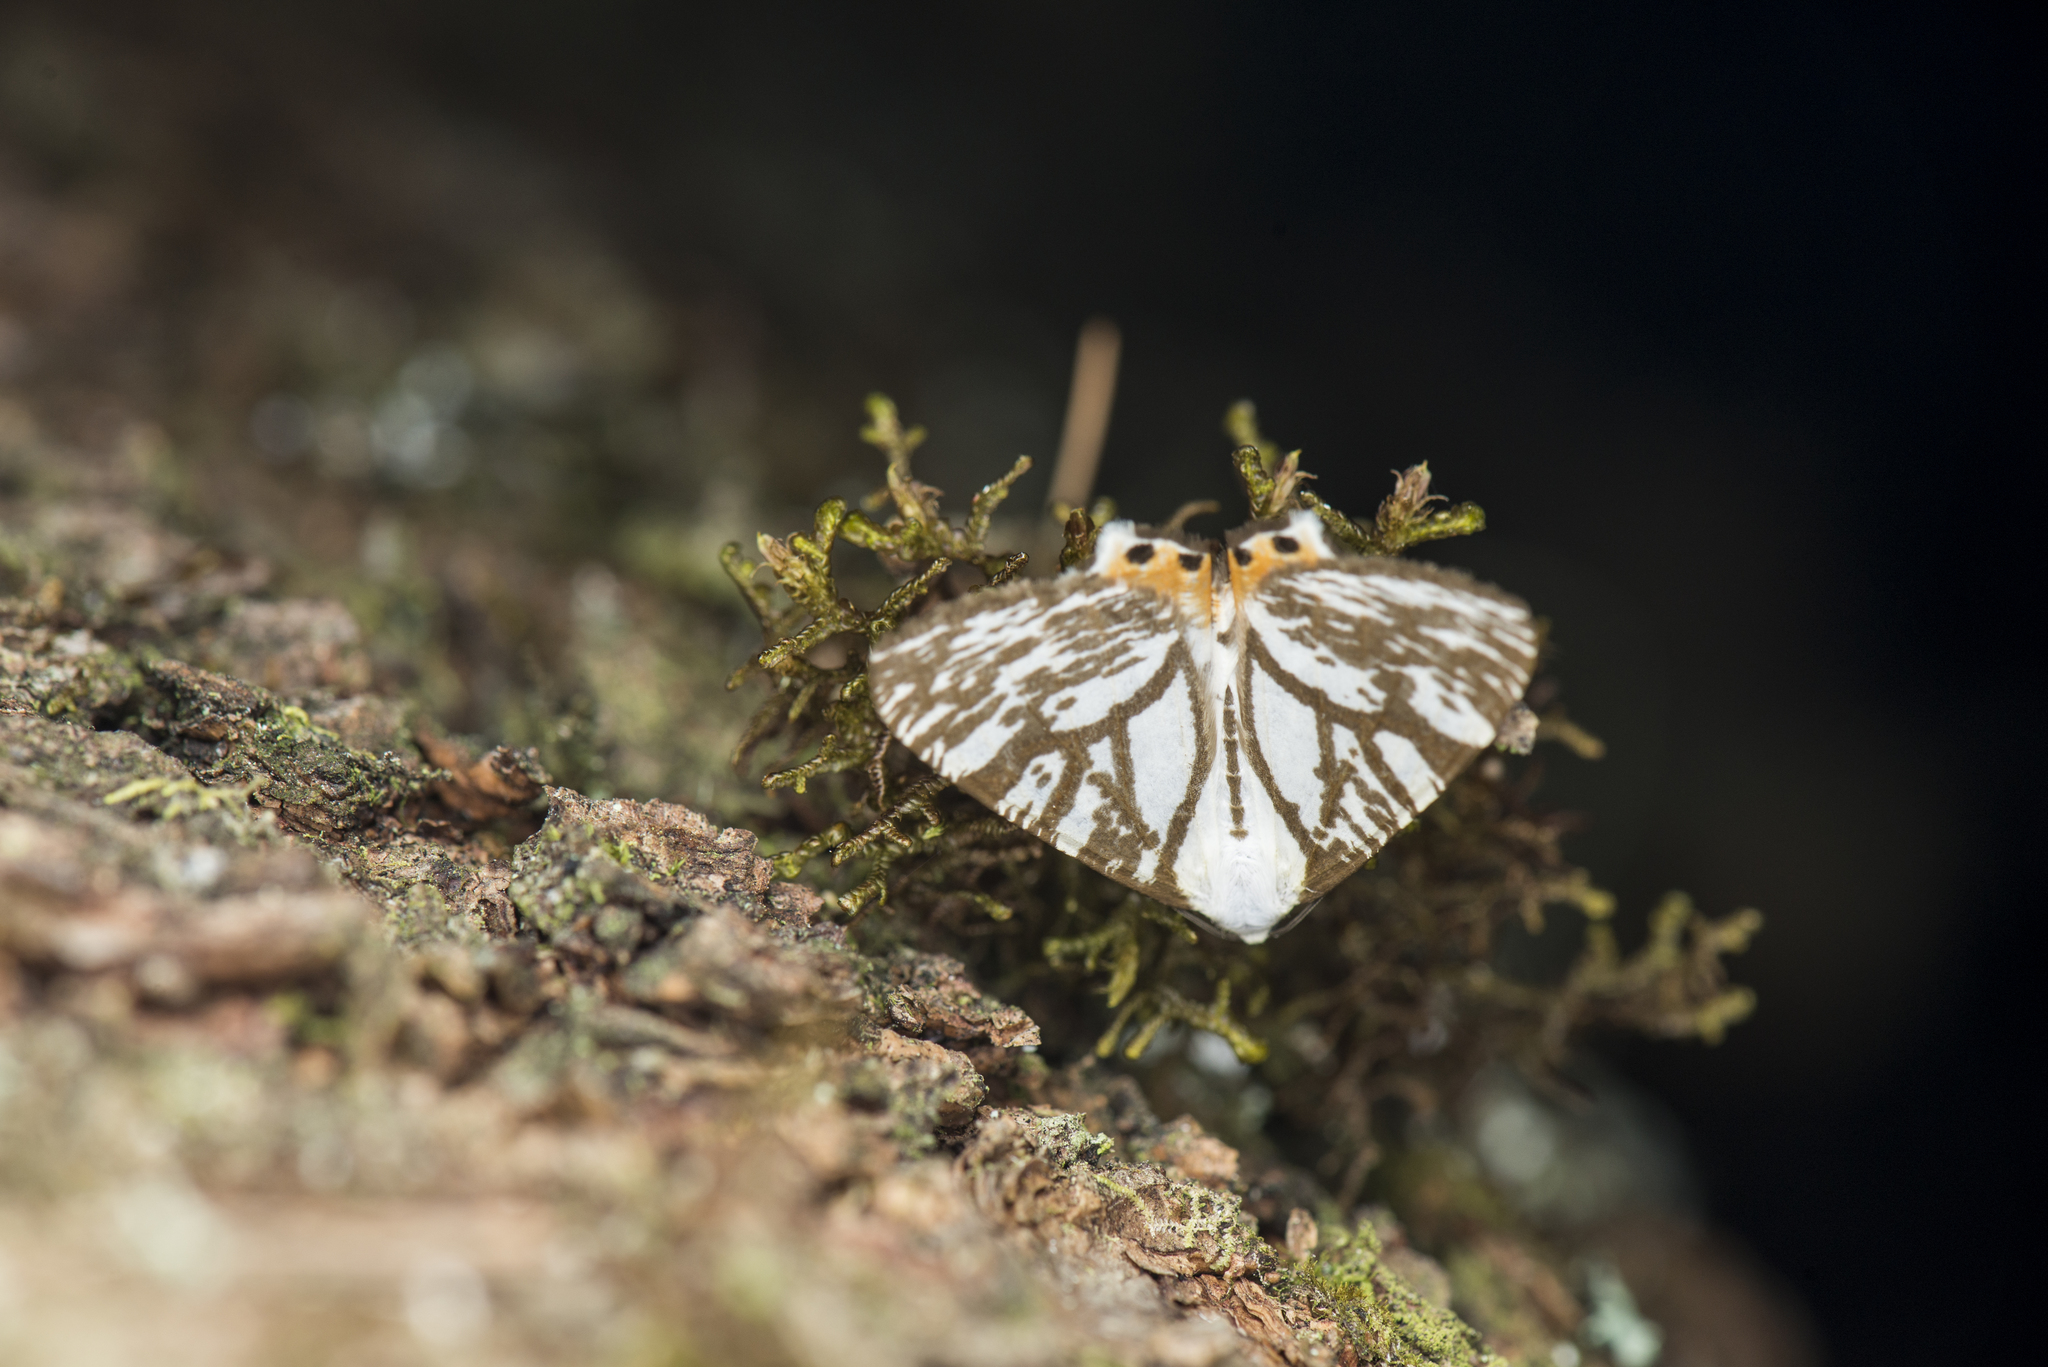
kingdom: Animalia
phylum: Arthropoda
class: Insecta
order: Lepidoptera
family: Geometridae
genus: Ourapteryx
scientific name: Ourapteryx ramosa
